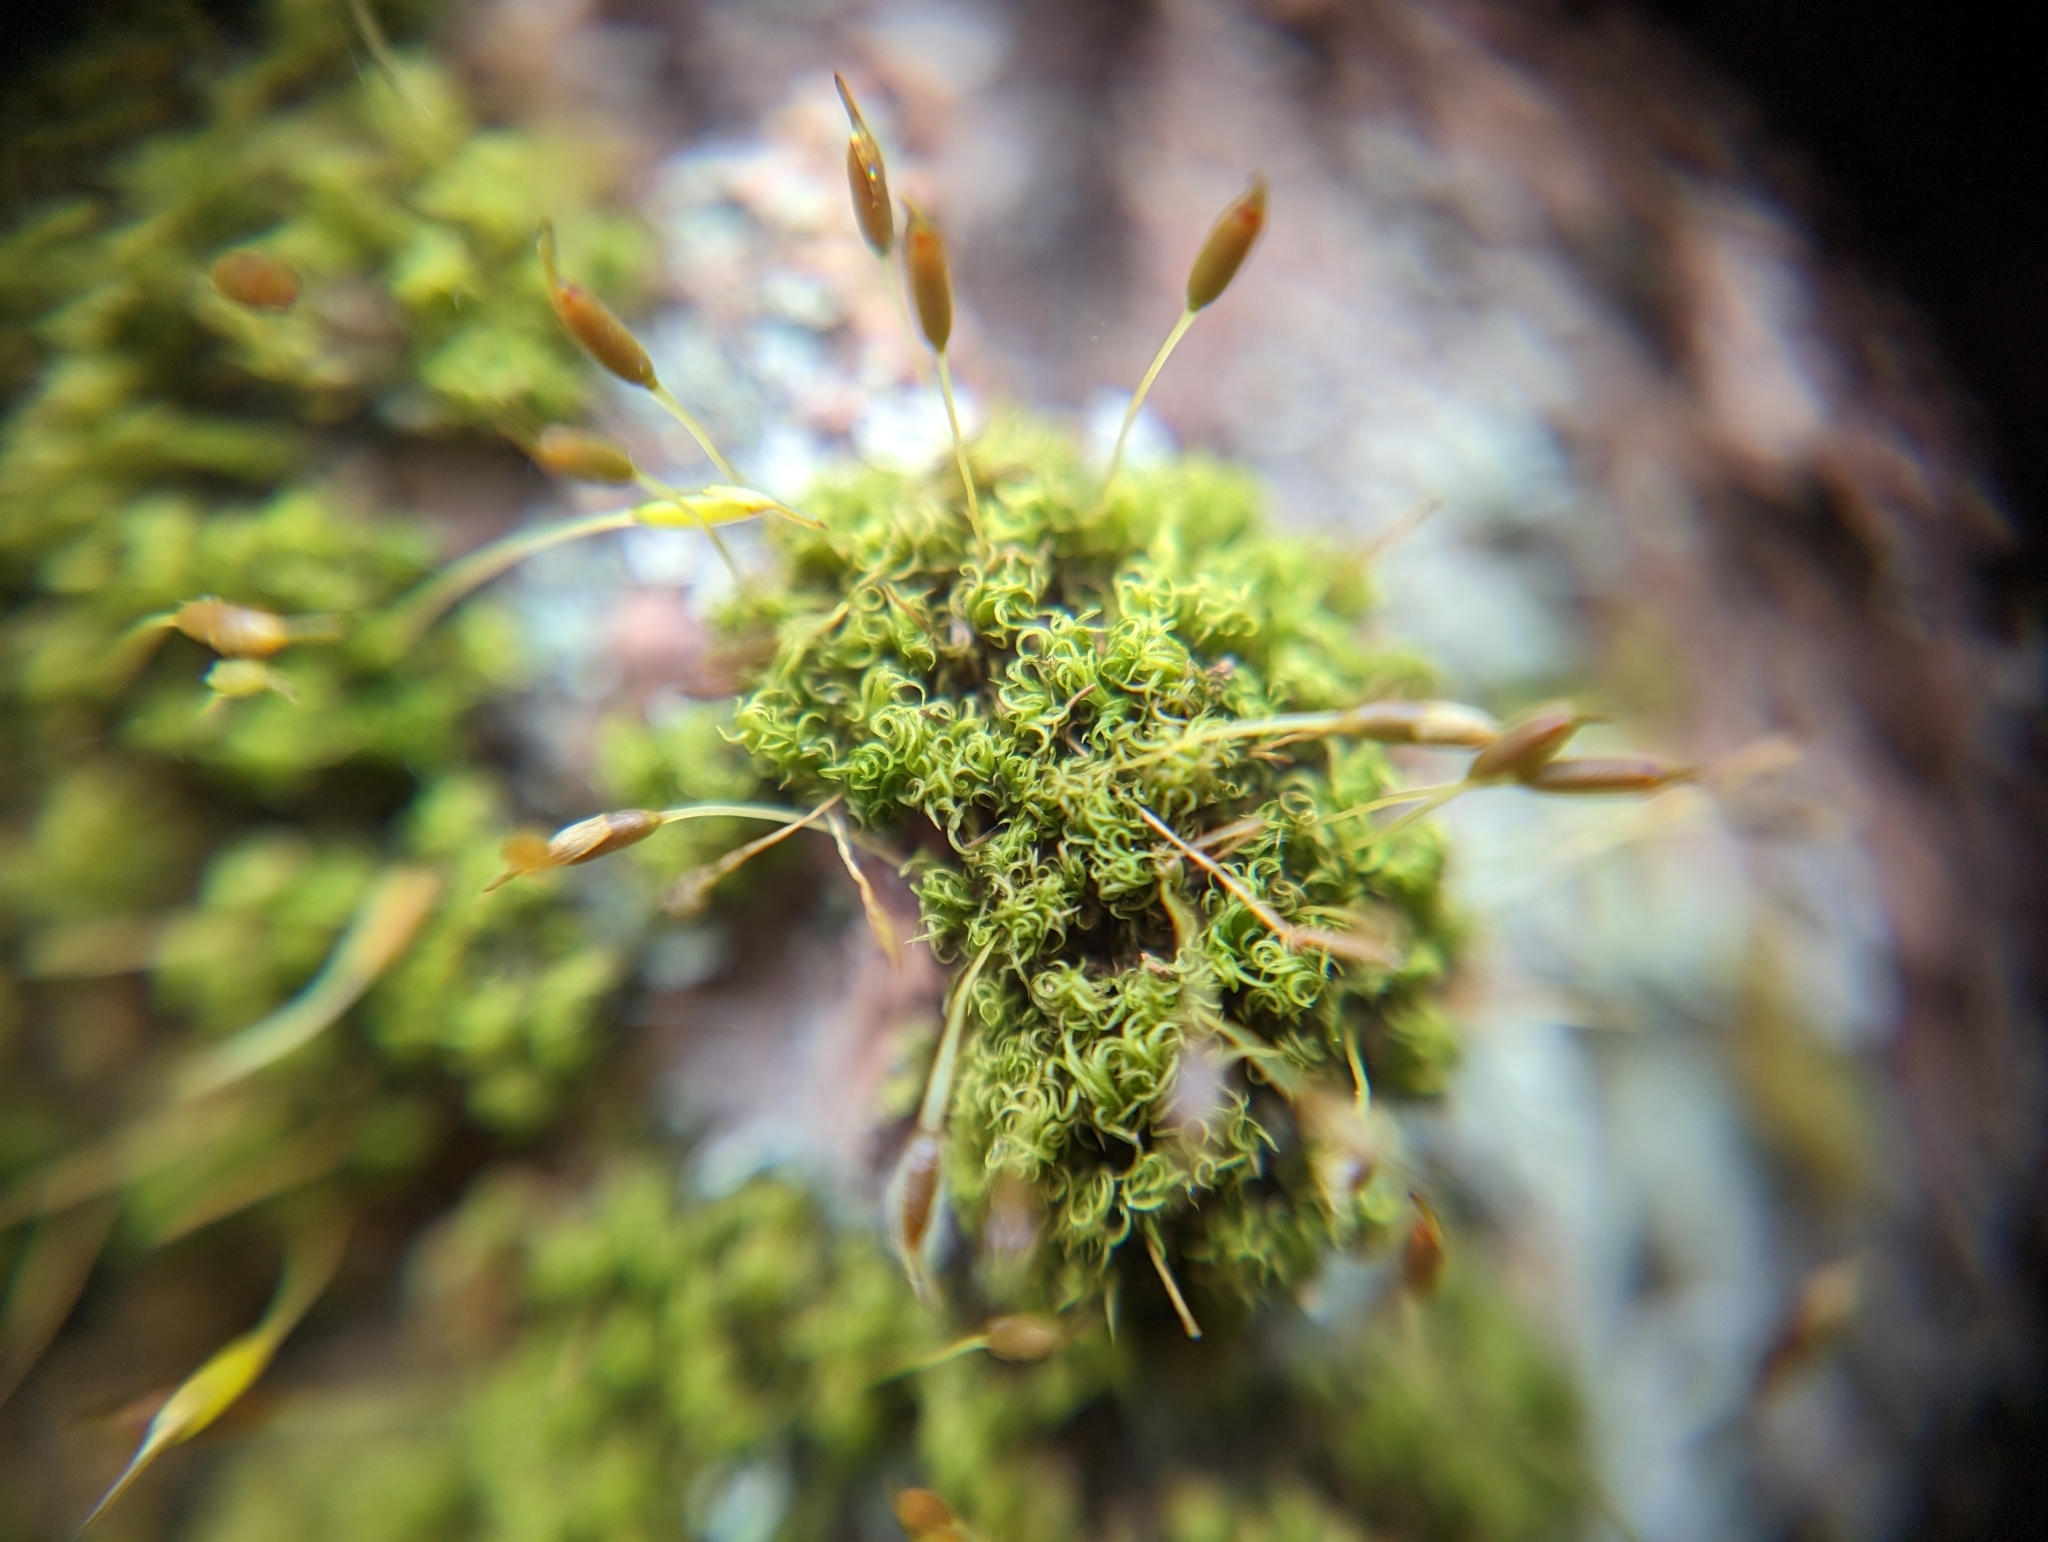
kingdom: Plantae
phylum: Bryophyta
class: Bryopsida
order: Dicranales
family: Rhabdoweisiaceae
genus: Dicranoweisia
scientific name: Dicranoweisia cirrata
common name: Common pincushion
